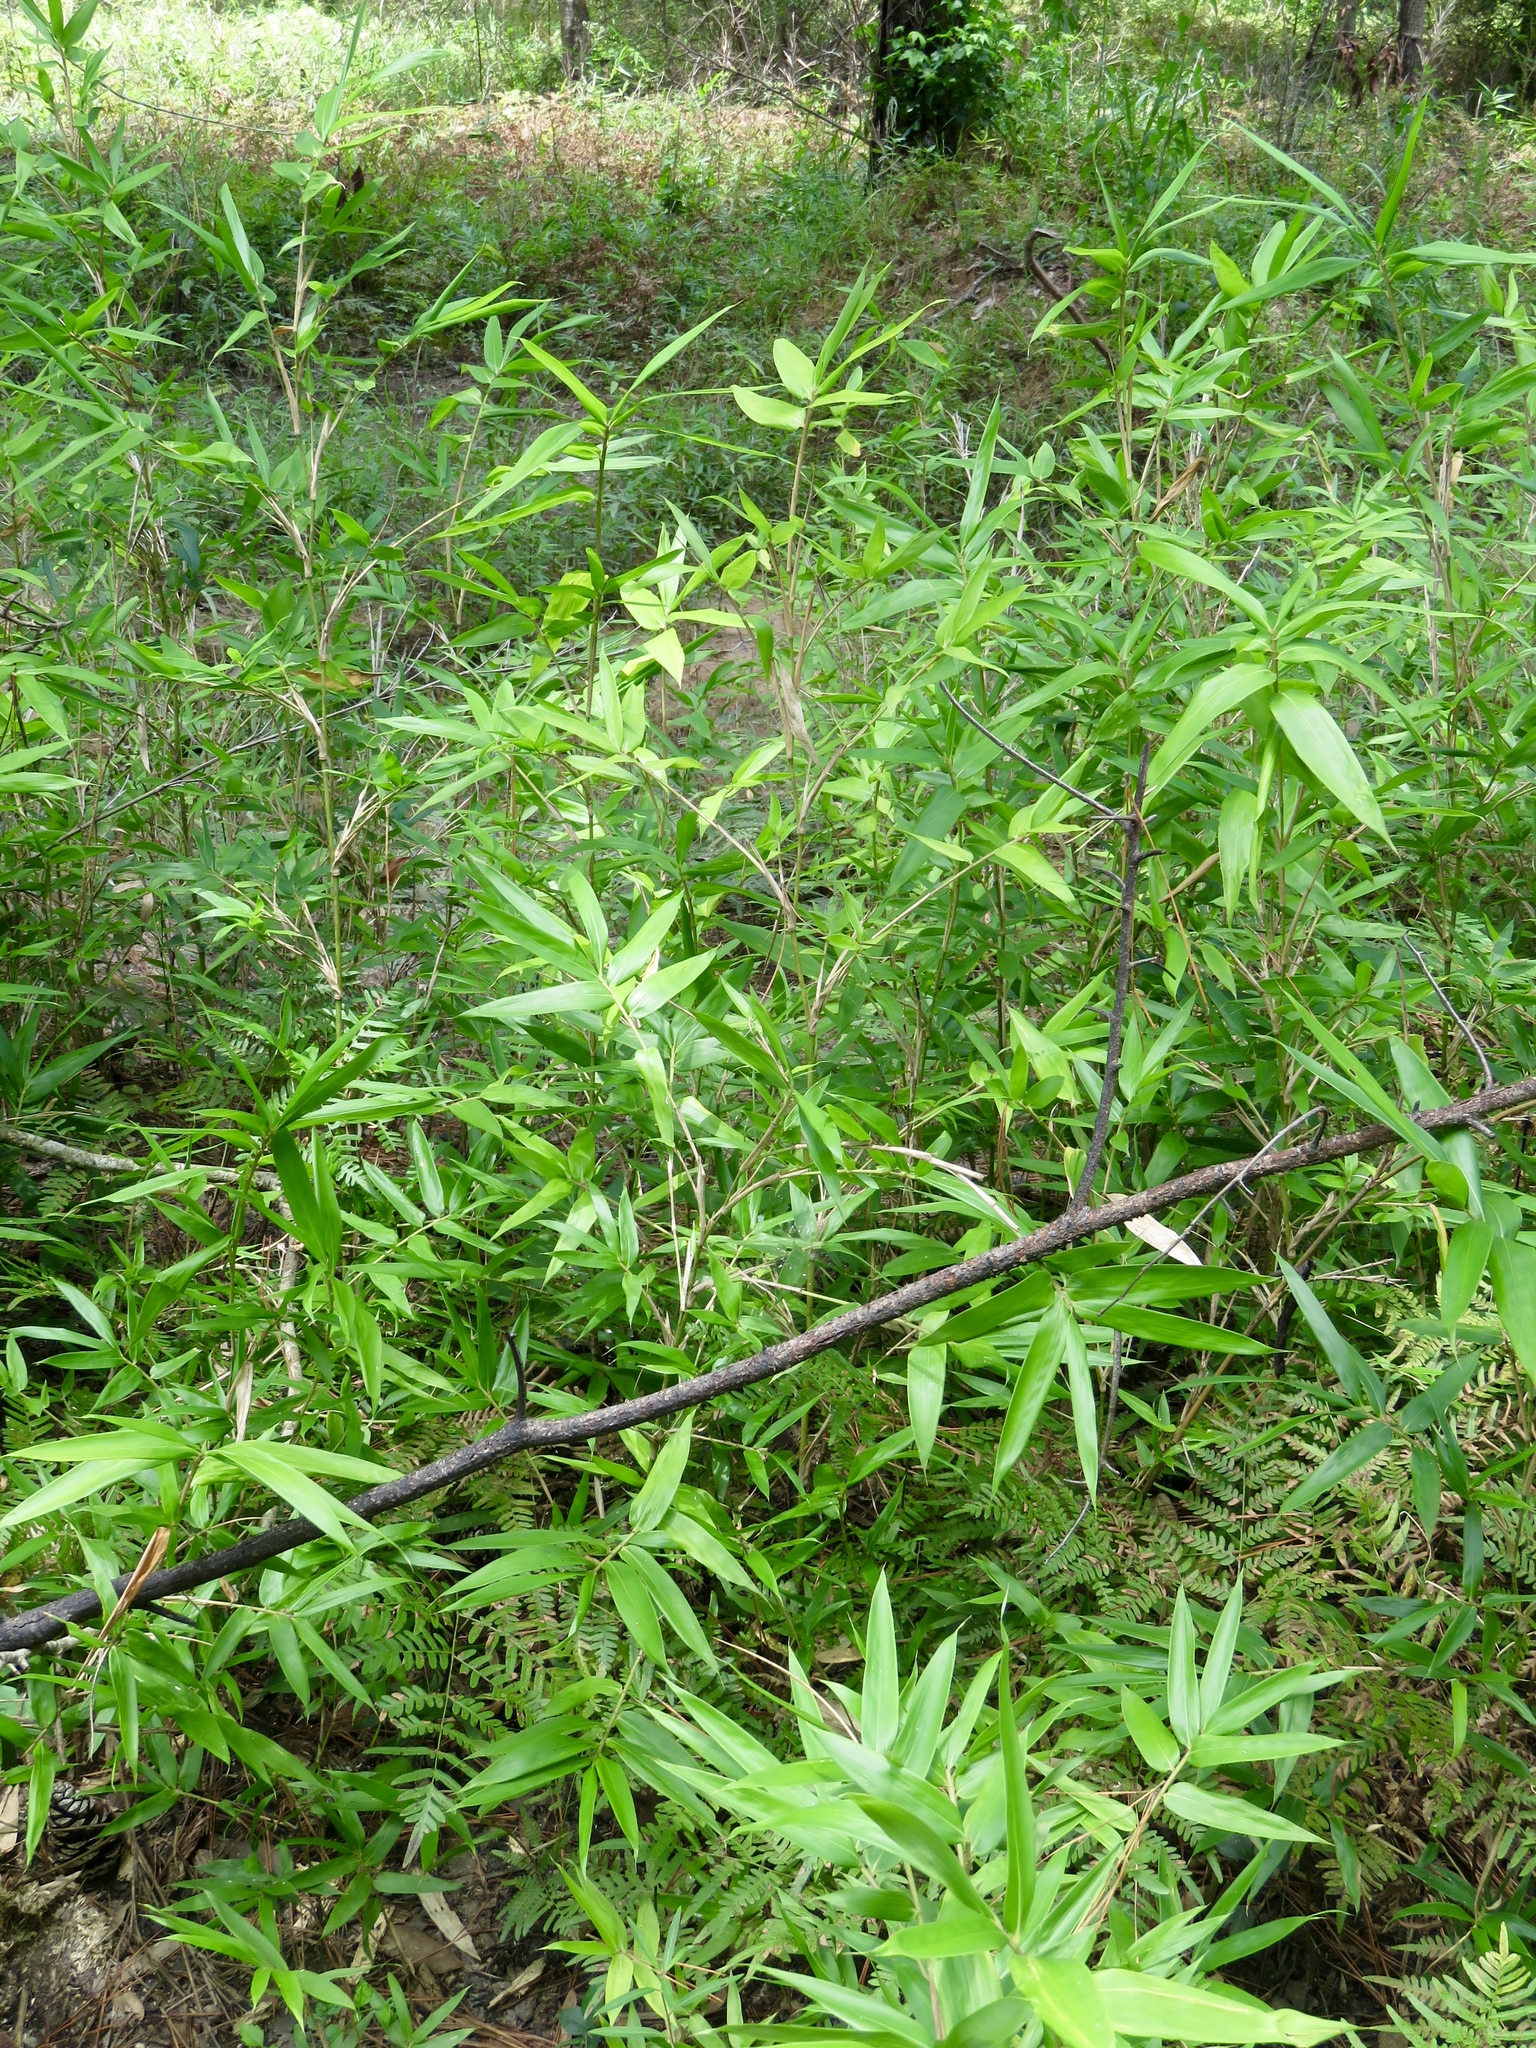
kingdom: Plantae
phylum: Tracheophyta
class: Liliopsida
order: Poales
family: Poaceae
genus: Arundinaria
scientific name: Arundinaria gigantea
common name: Giant cane
